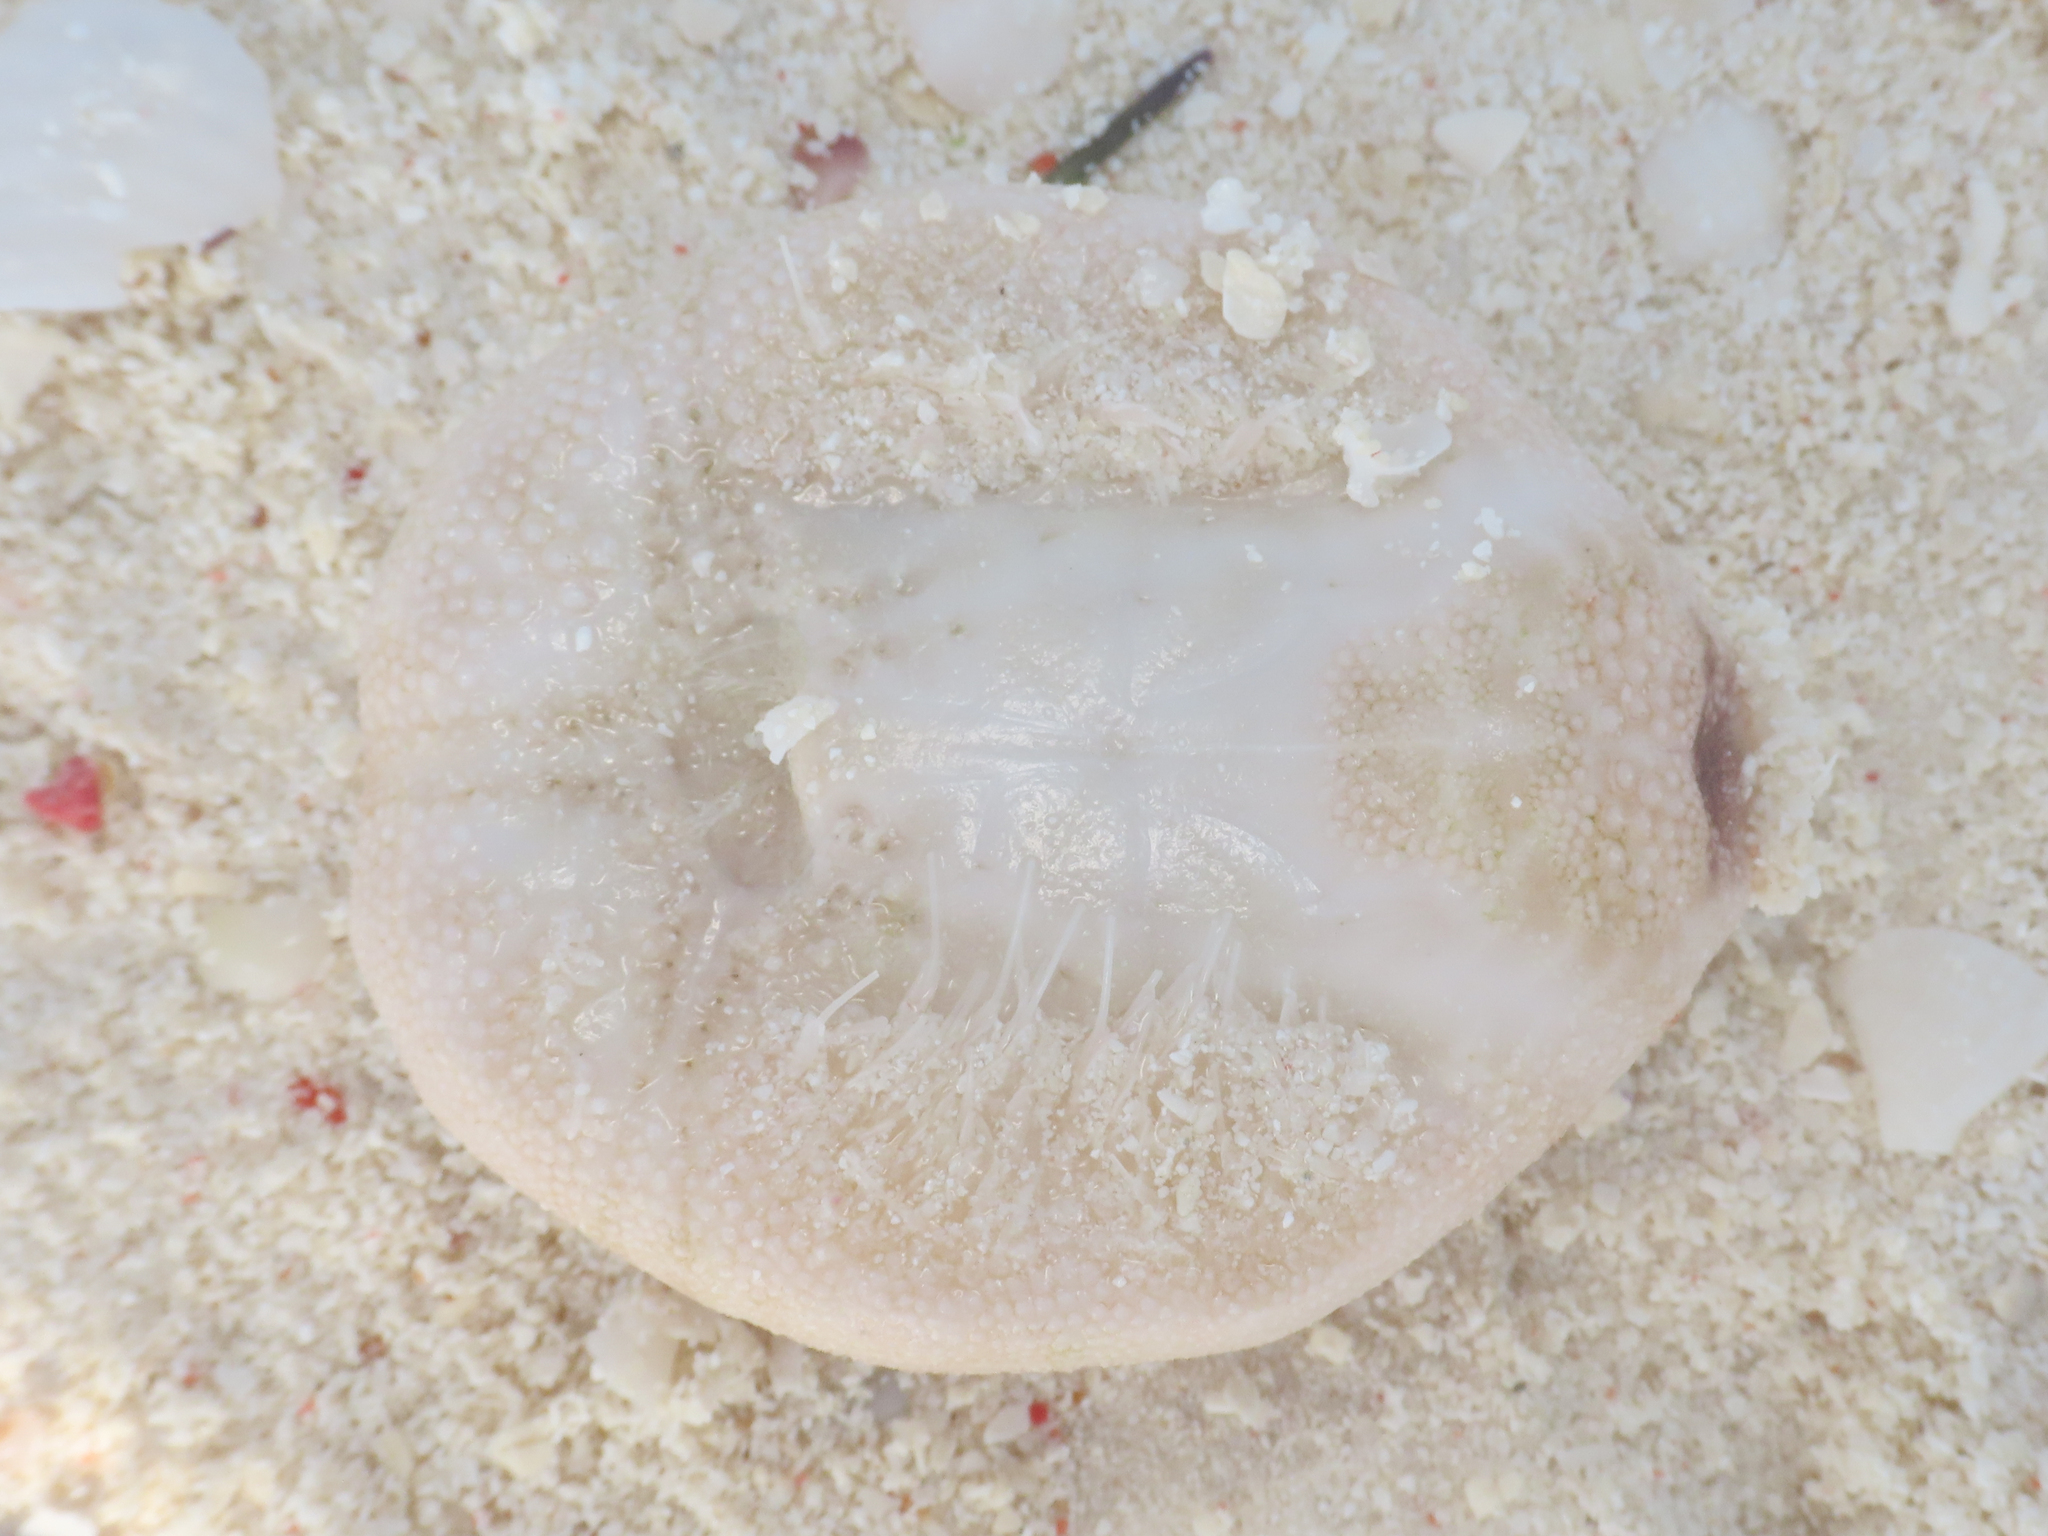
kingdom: Animalia
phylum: Echinodermata
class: Echinoidea
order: Spatangoida
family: Maretiidae
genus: Maretia
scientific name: Maretia planulata
